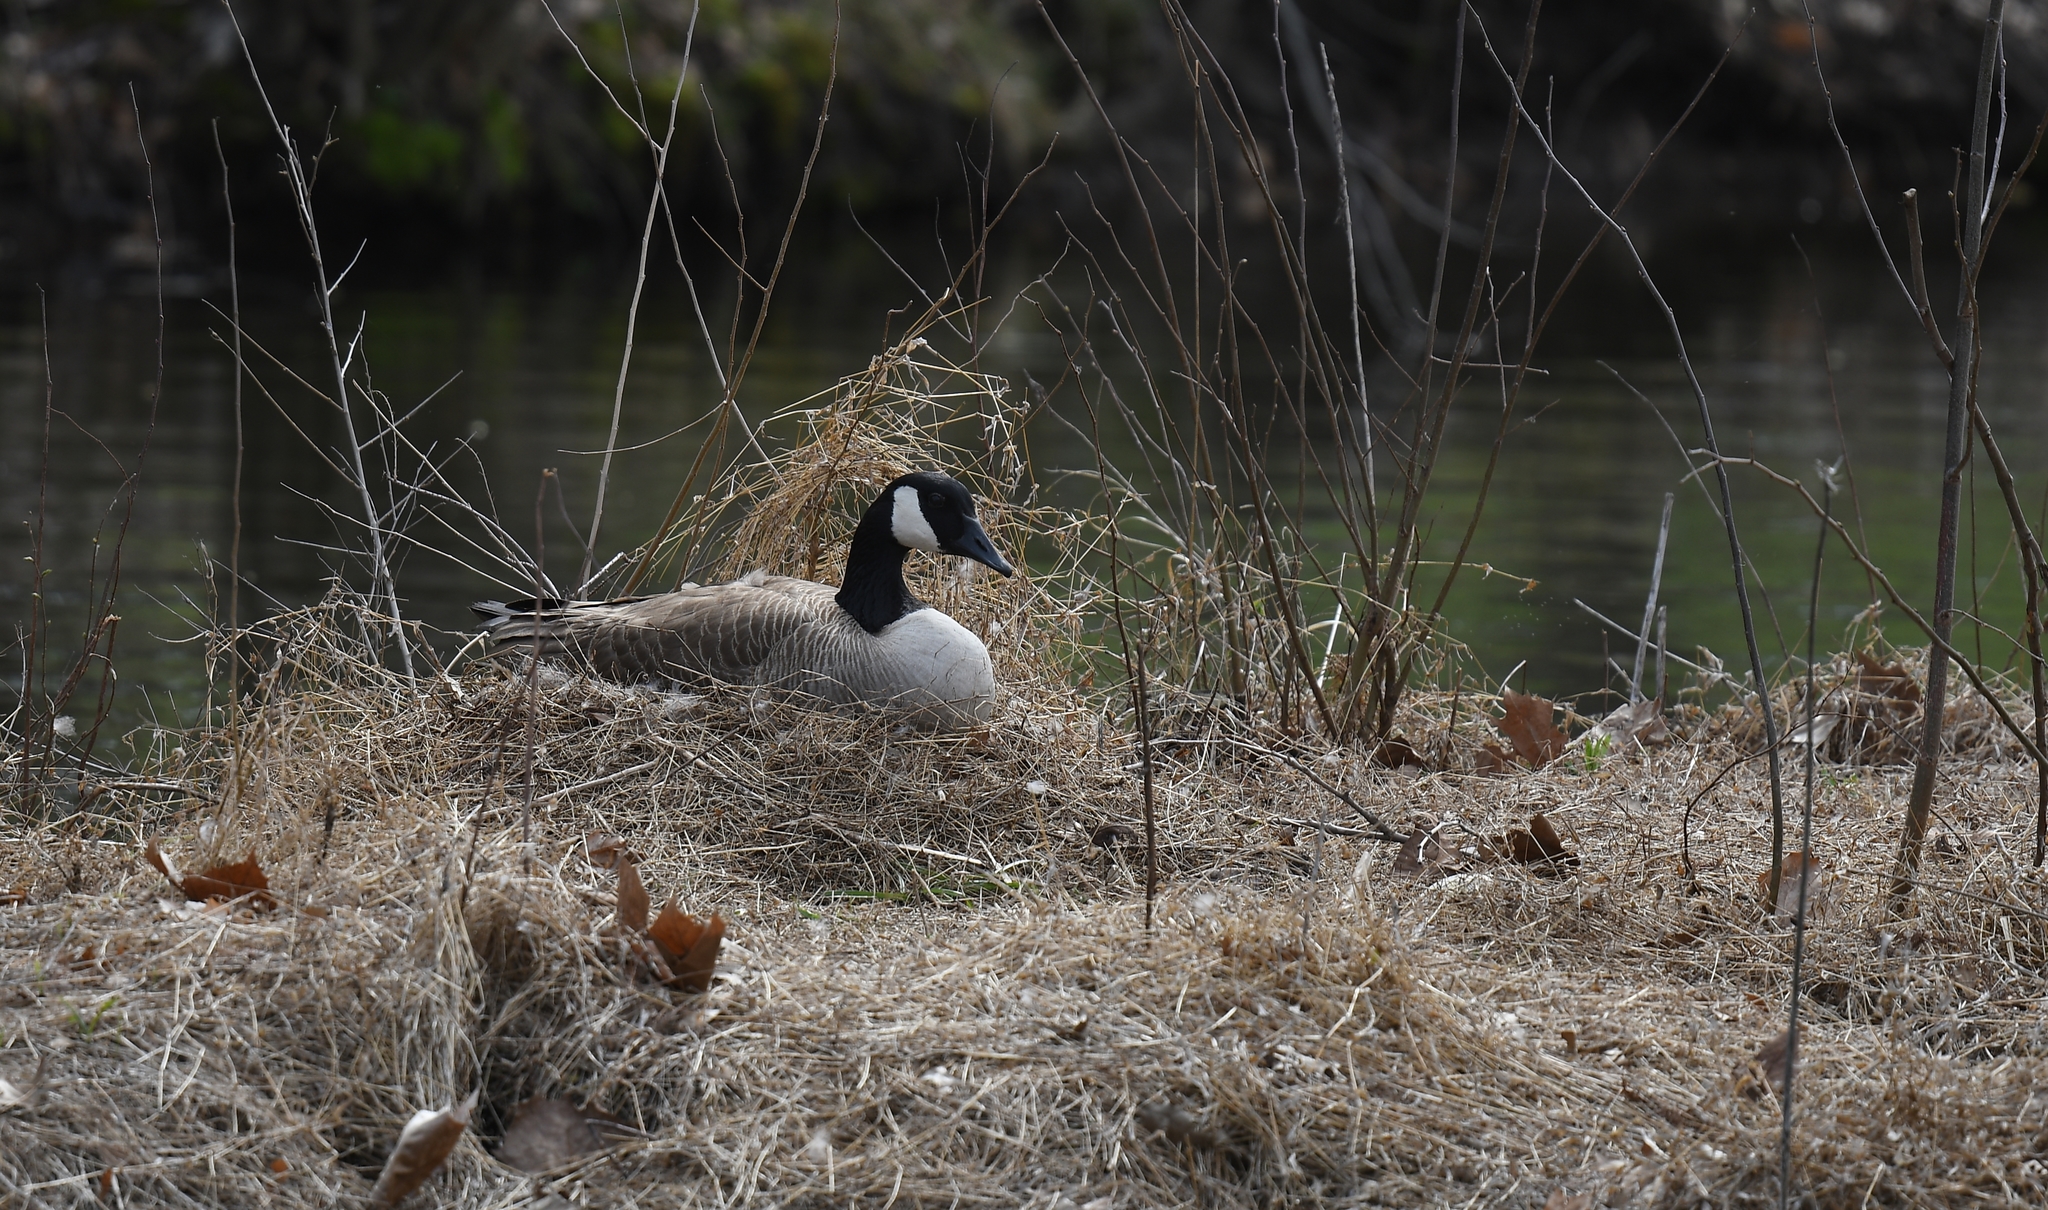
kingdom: Animalia
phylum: Chordata
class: Aves
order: Anseriformes
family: Anatidae
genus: Branta
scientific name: Branta canadensis
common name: Canada goose
